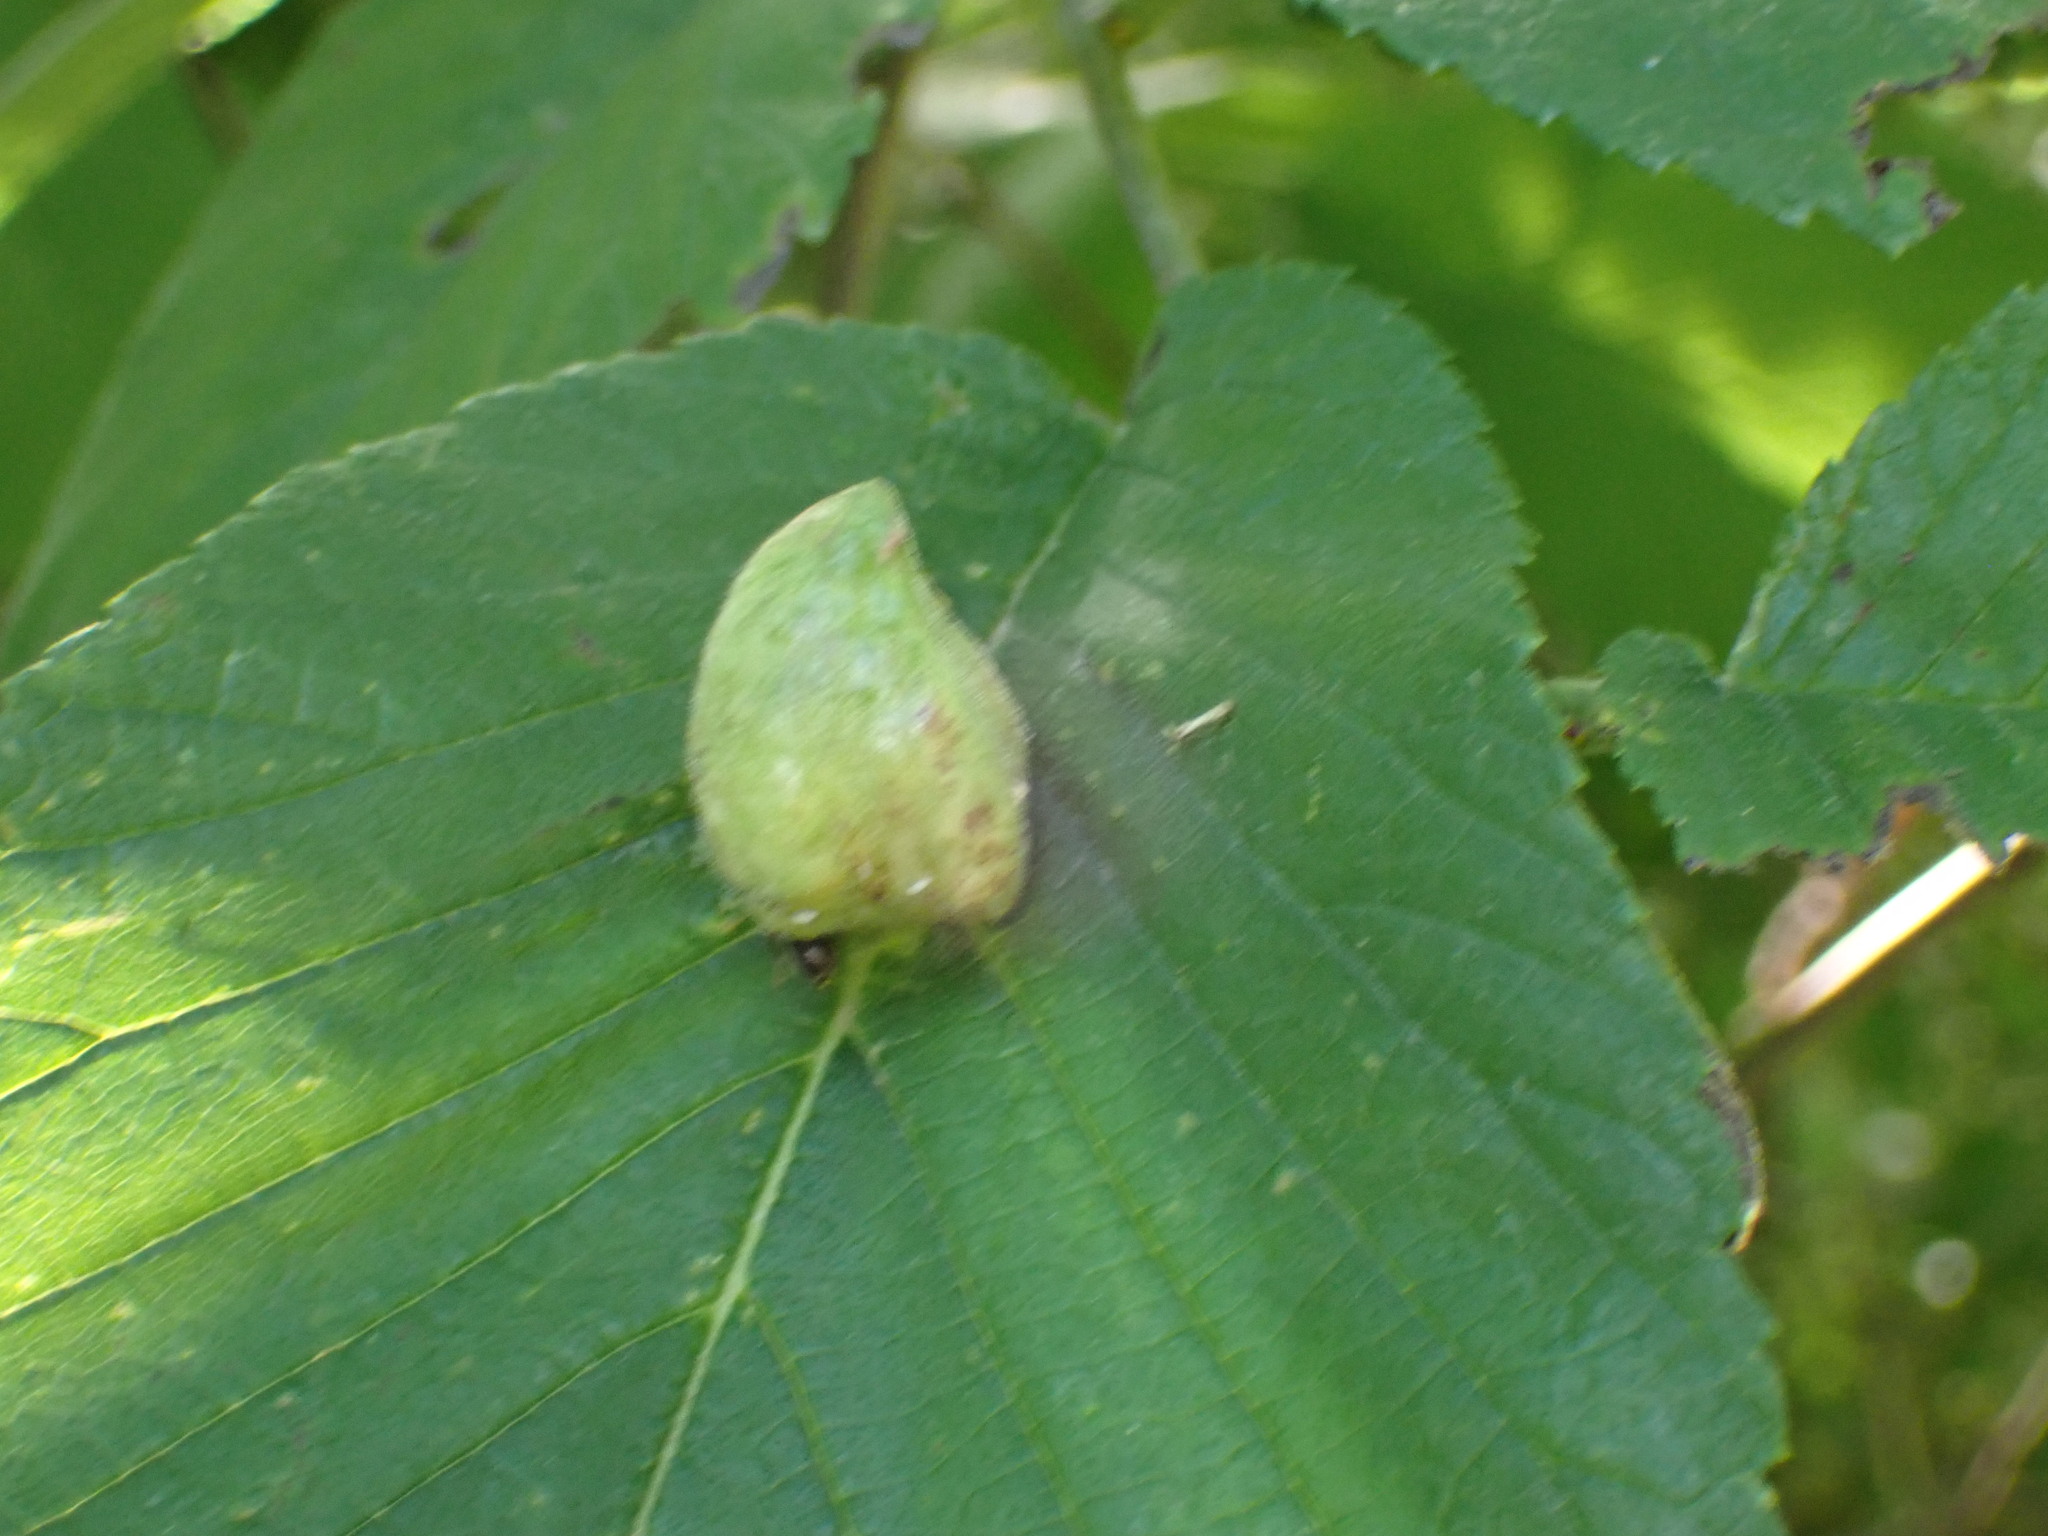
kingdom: Animalia
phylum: Arthropoda
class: Insecta
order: Hemiptera
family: Aphididae
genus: Kaltenbachiella
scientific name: Kaltenbachiella ulmifusa
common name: Elm pouchgall aphid
